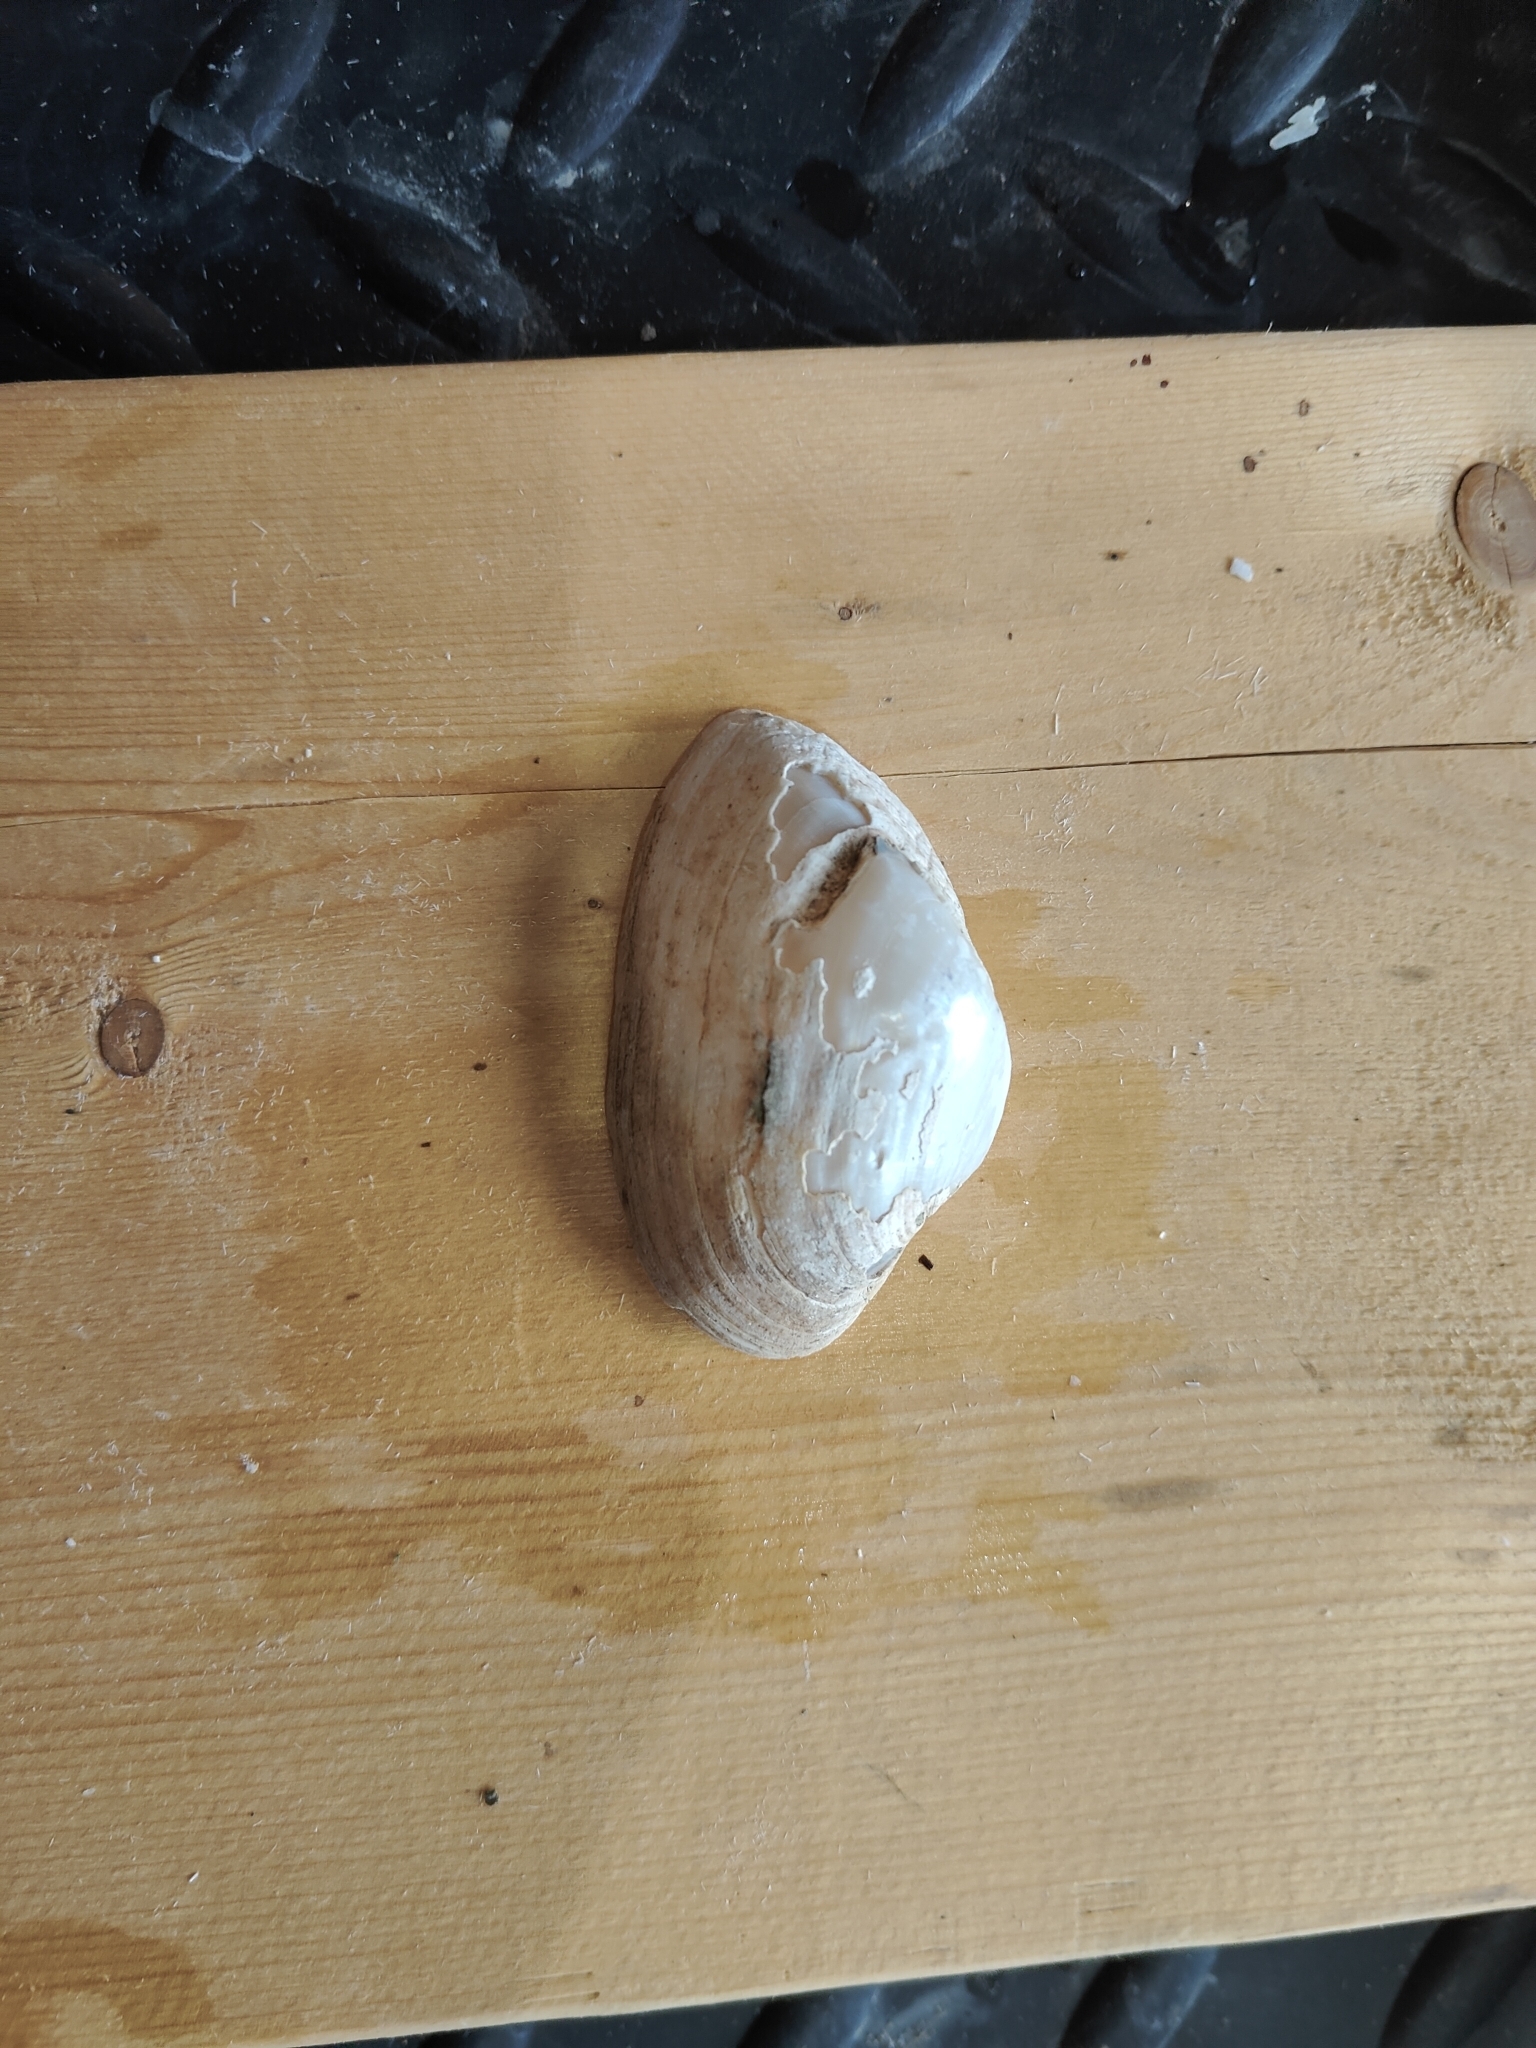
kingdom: Animalia
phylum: Mollusca
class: Bivalvia
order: Unionida
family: Unionidae
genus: Alasmidonta
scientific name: Alasmidonta marginata
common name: Elktoe
